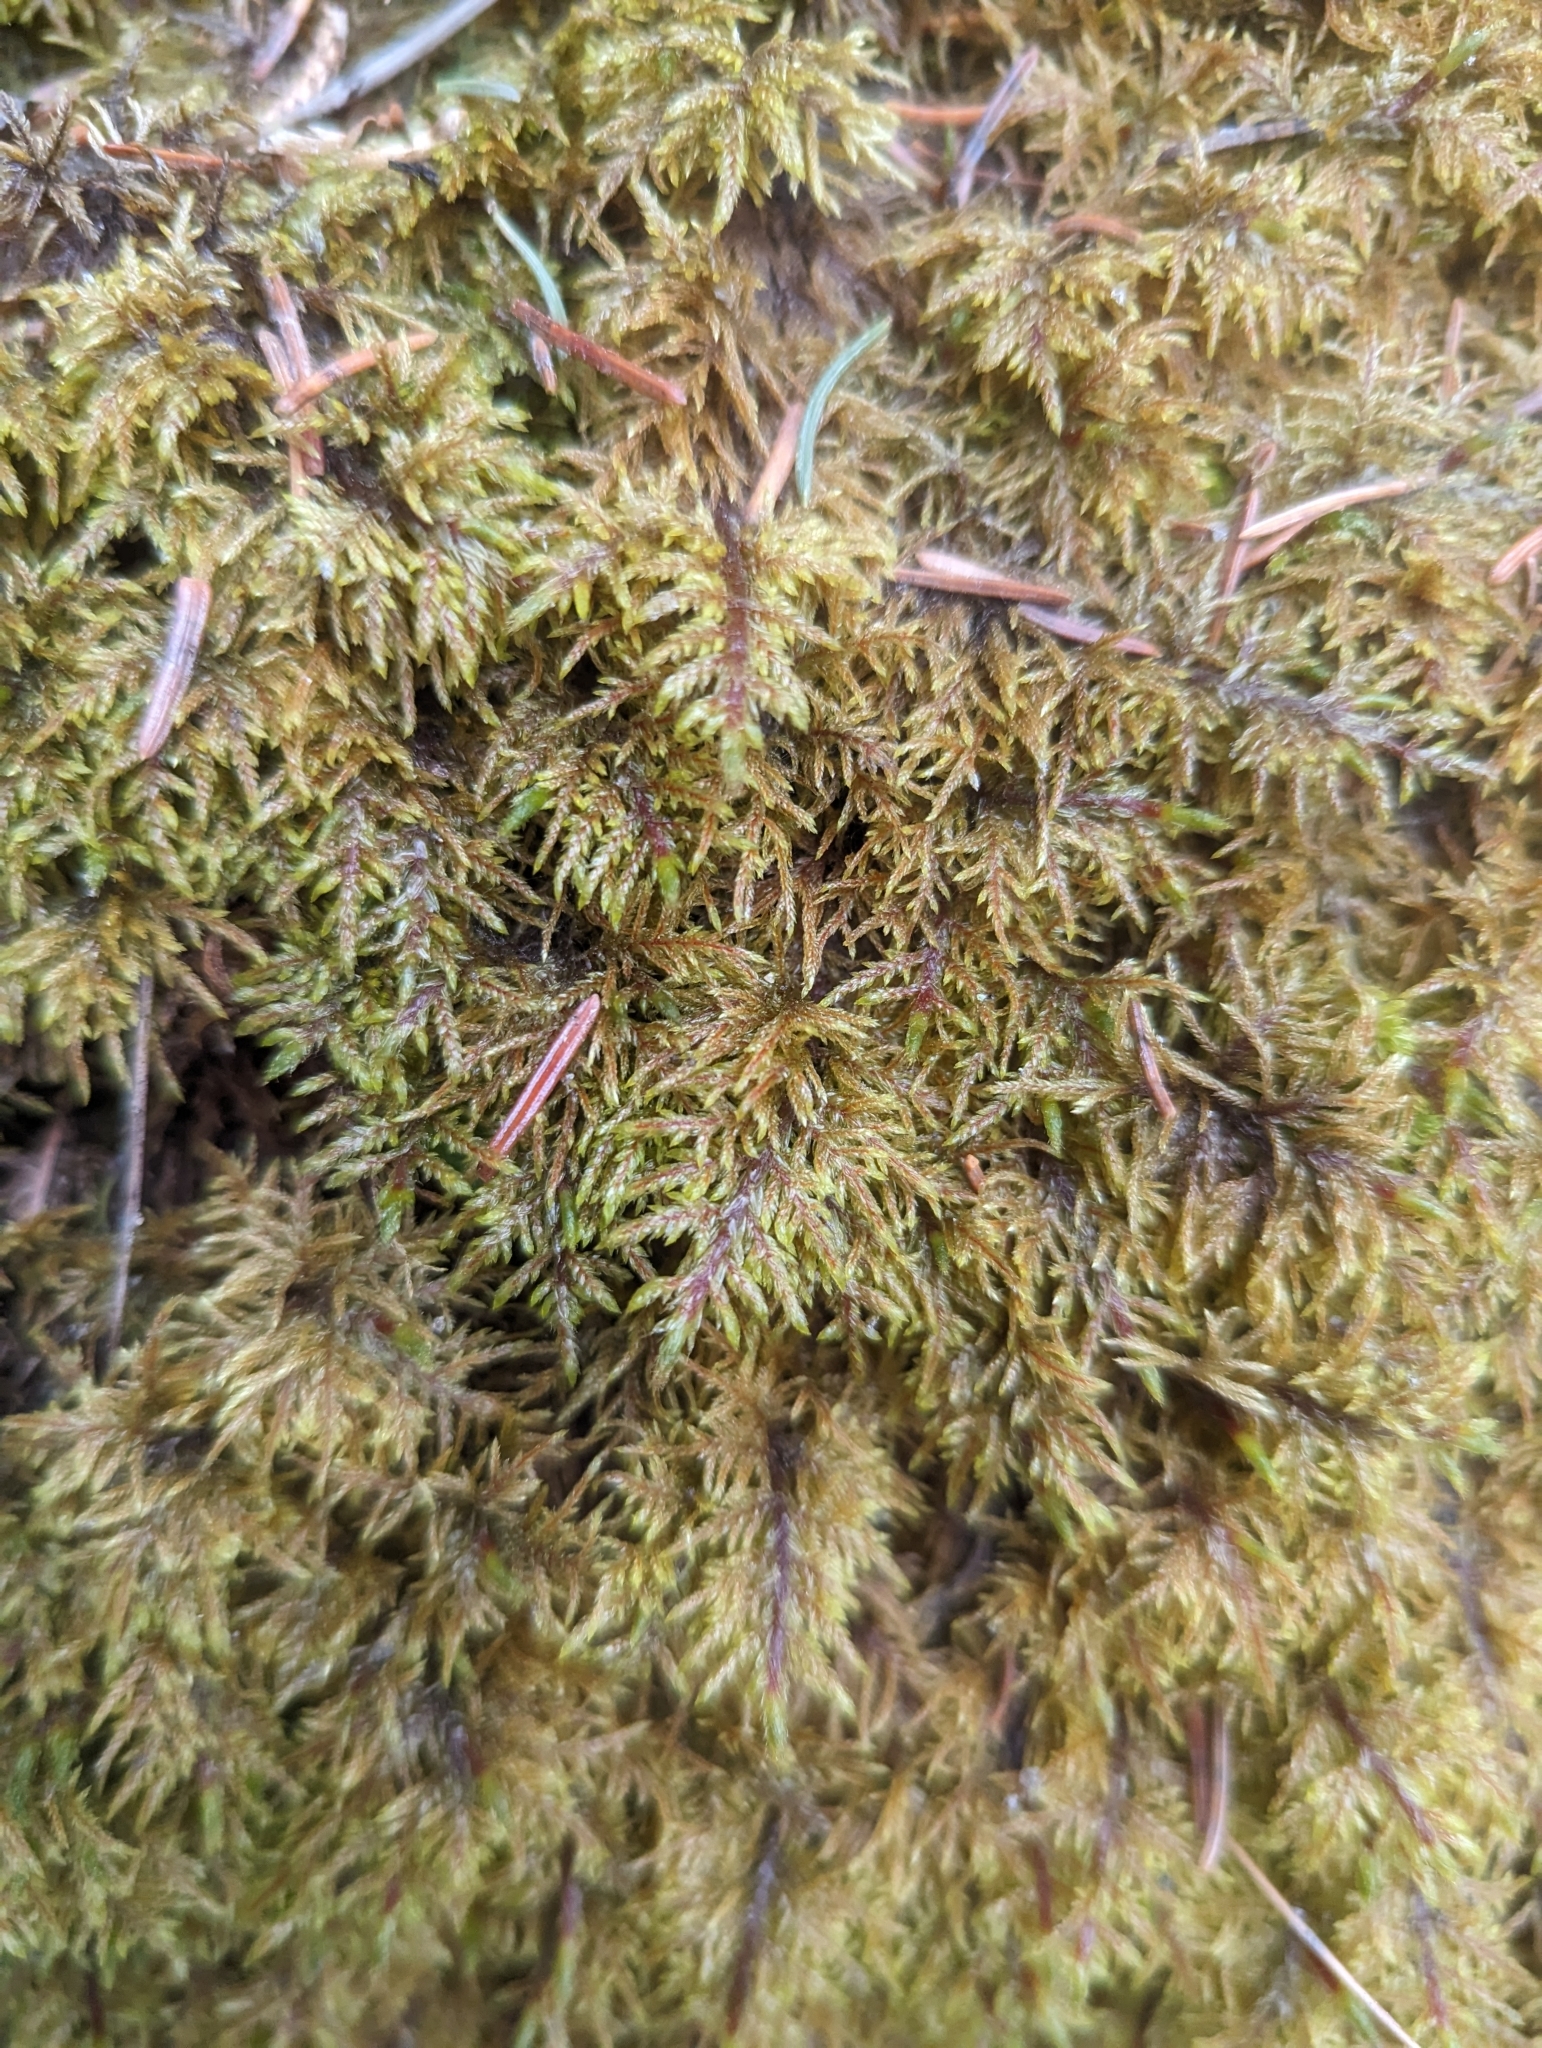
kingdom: Plantae
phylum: Bryophyta
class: Bryopsida
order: Hypnales
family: Hylocomiaceae
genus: Hylocomium
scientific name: Hylocomium splendens
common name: Stairstep moss
